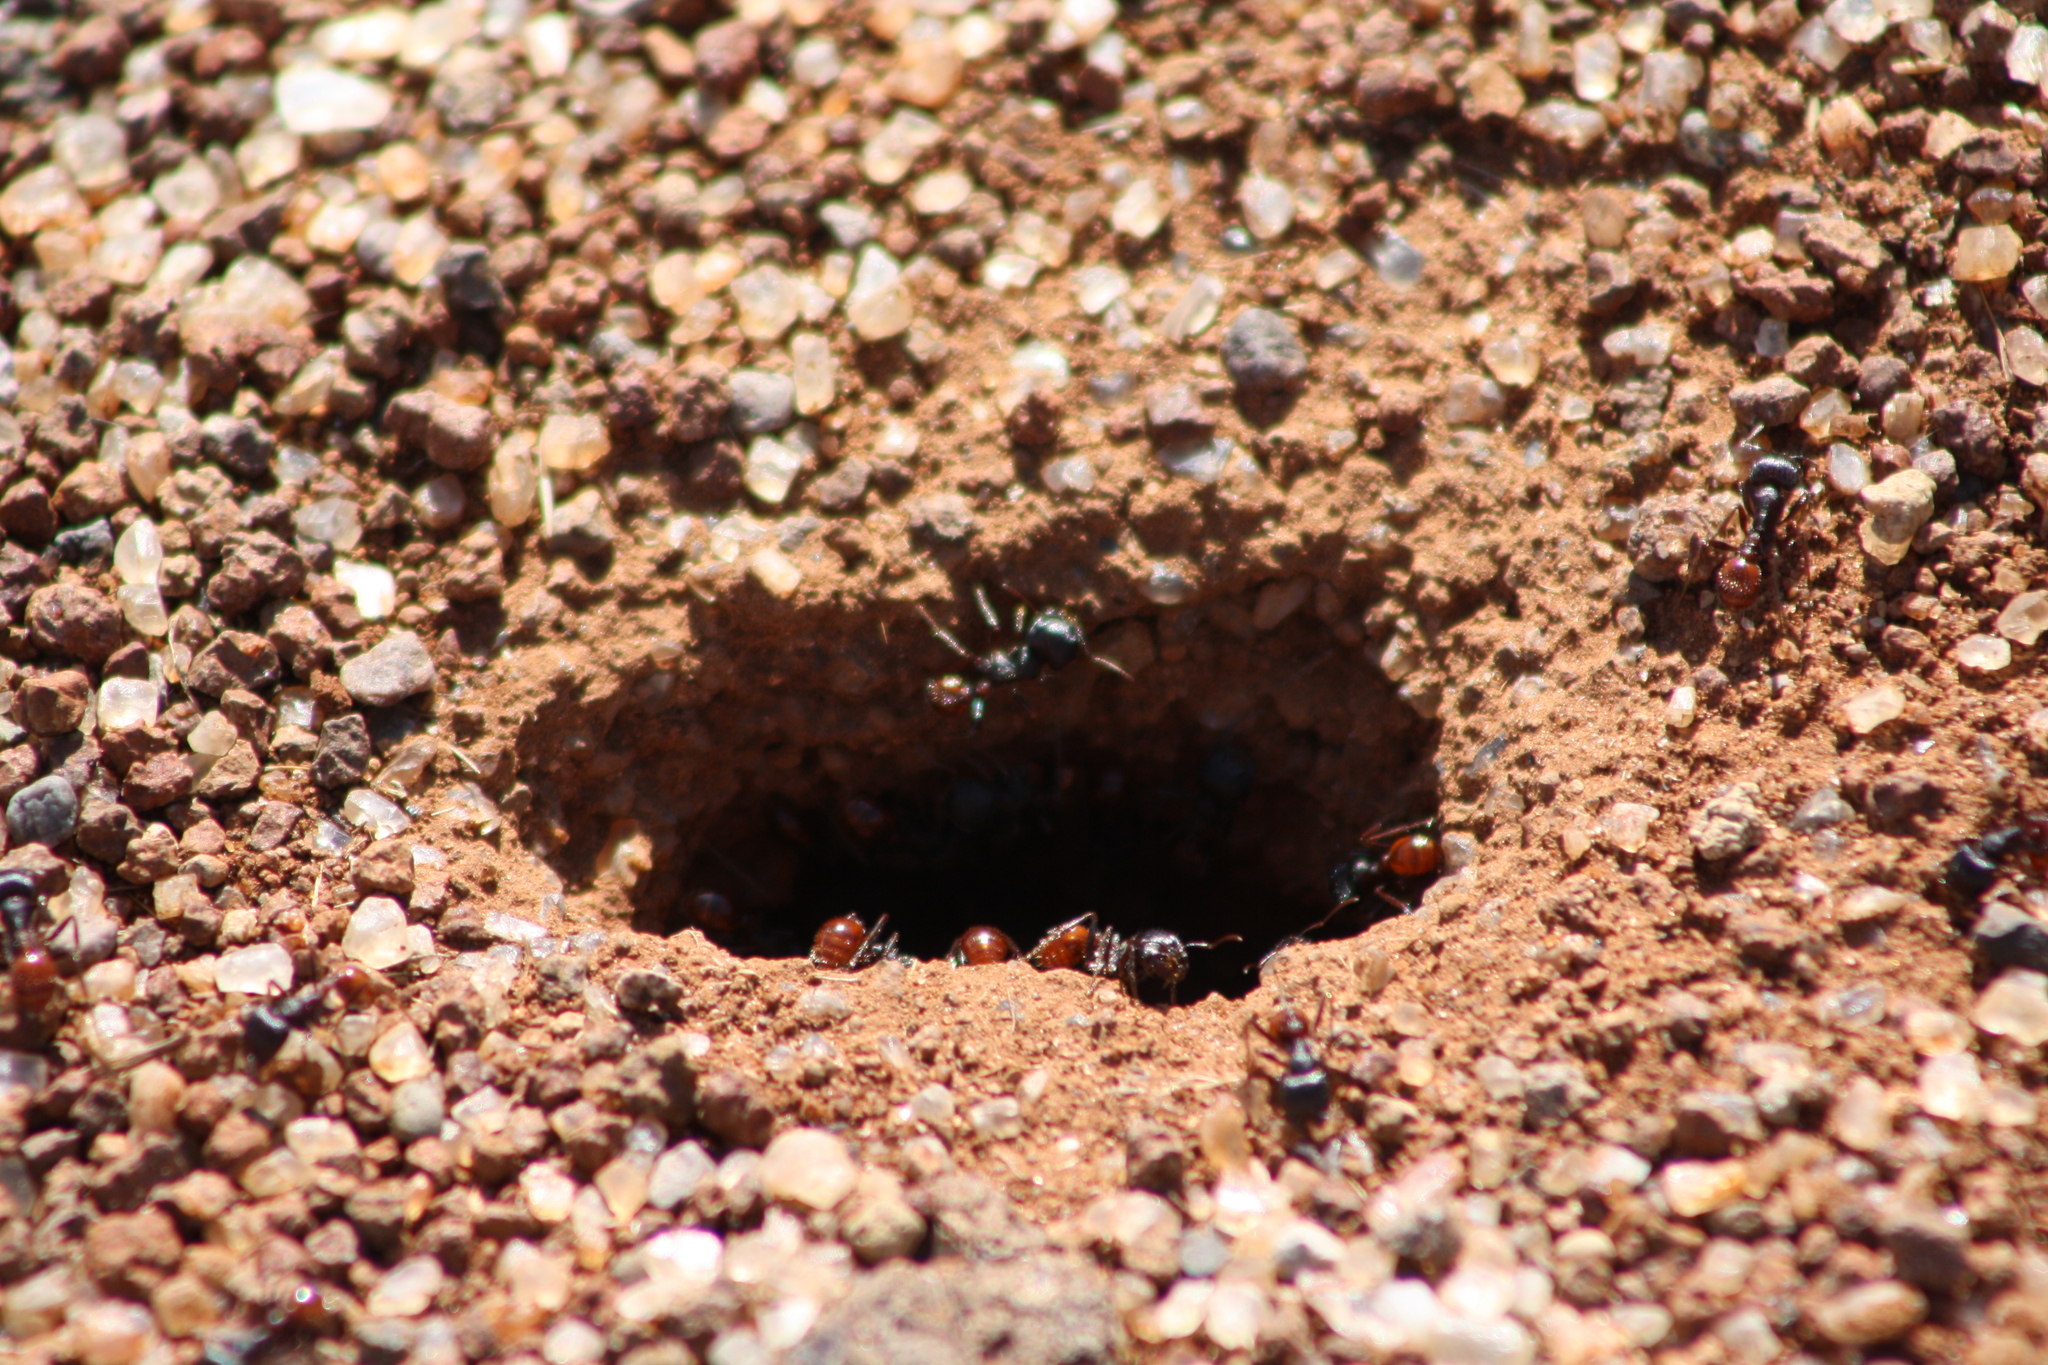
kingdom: Animalia
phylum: Arthropoda
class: Insecta
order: Hymenoptera
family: Formicidae
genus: Pogonomyrmex
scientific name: Pogonomyrmex rugosus
